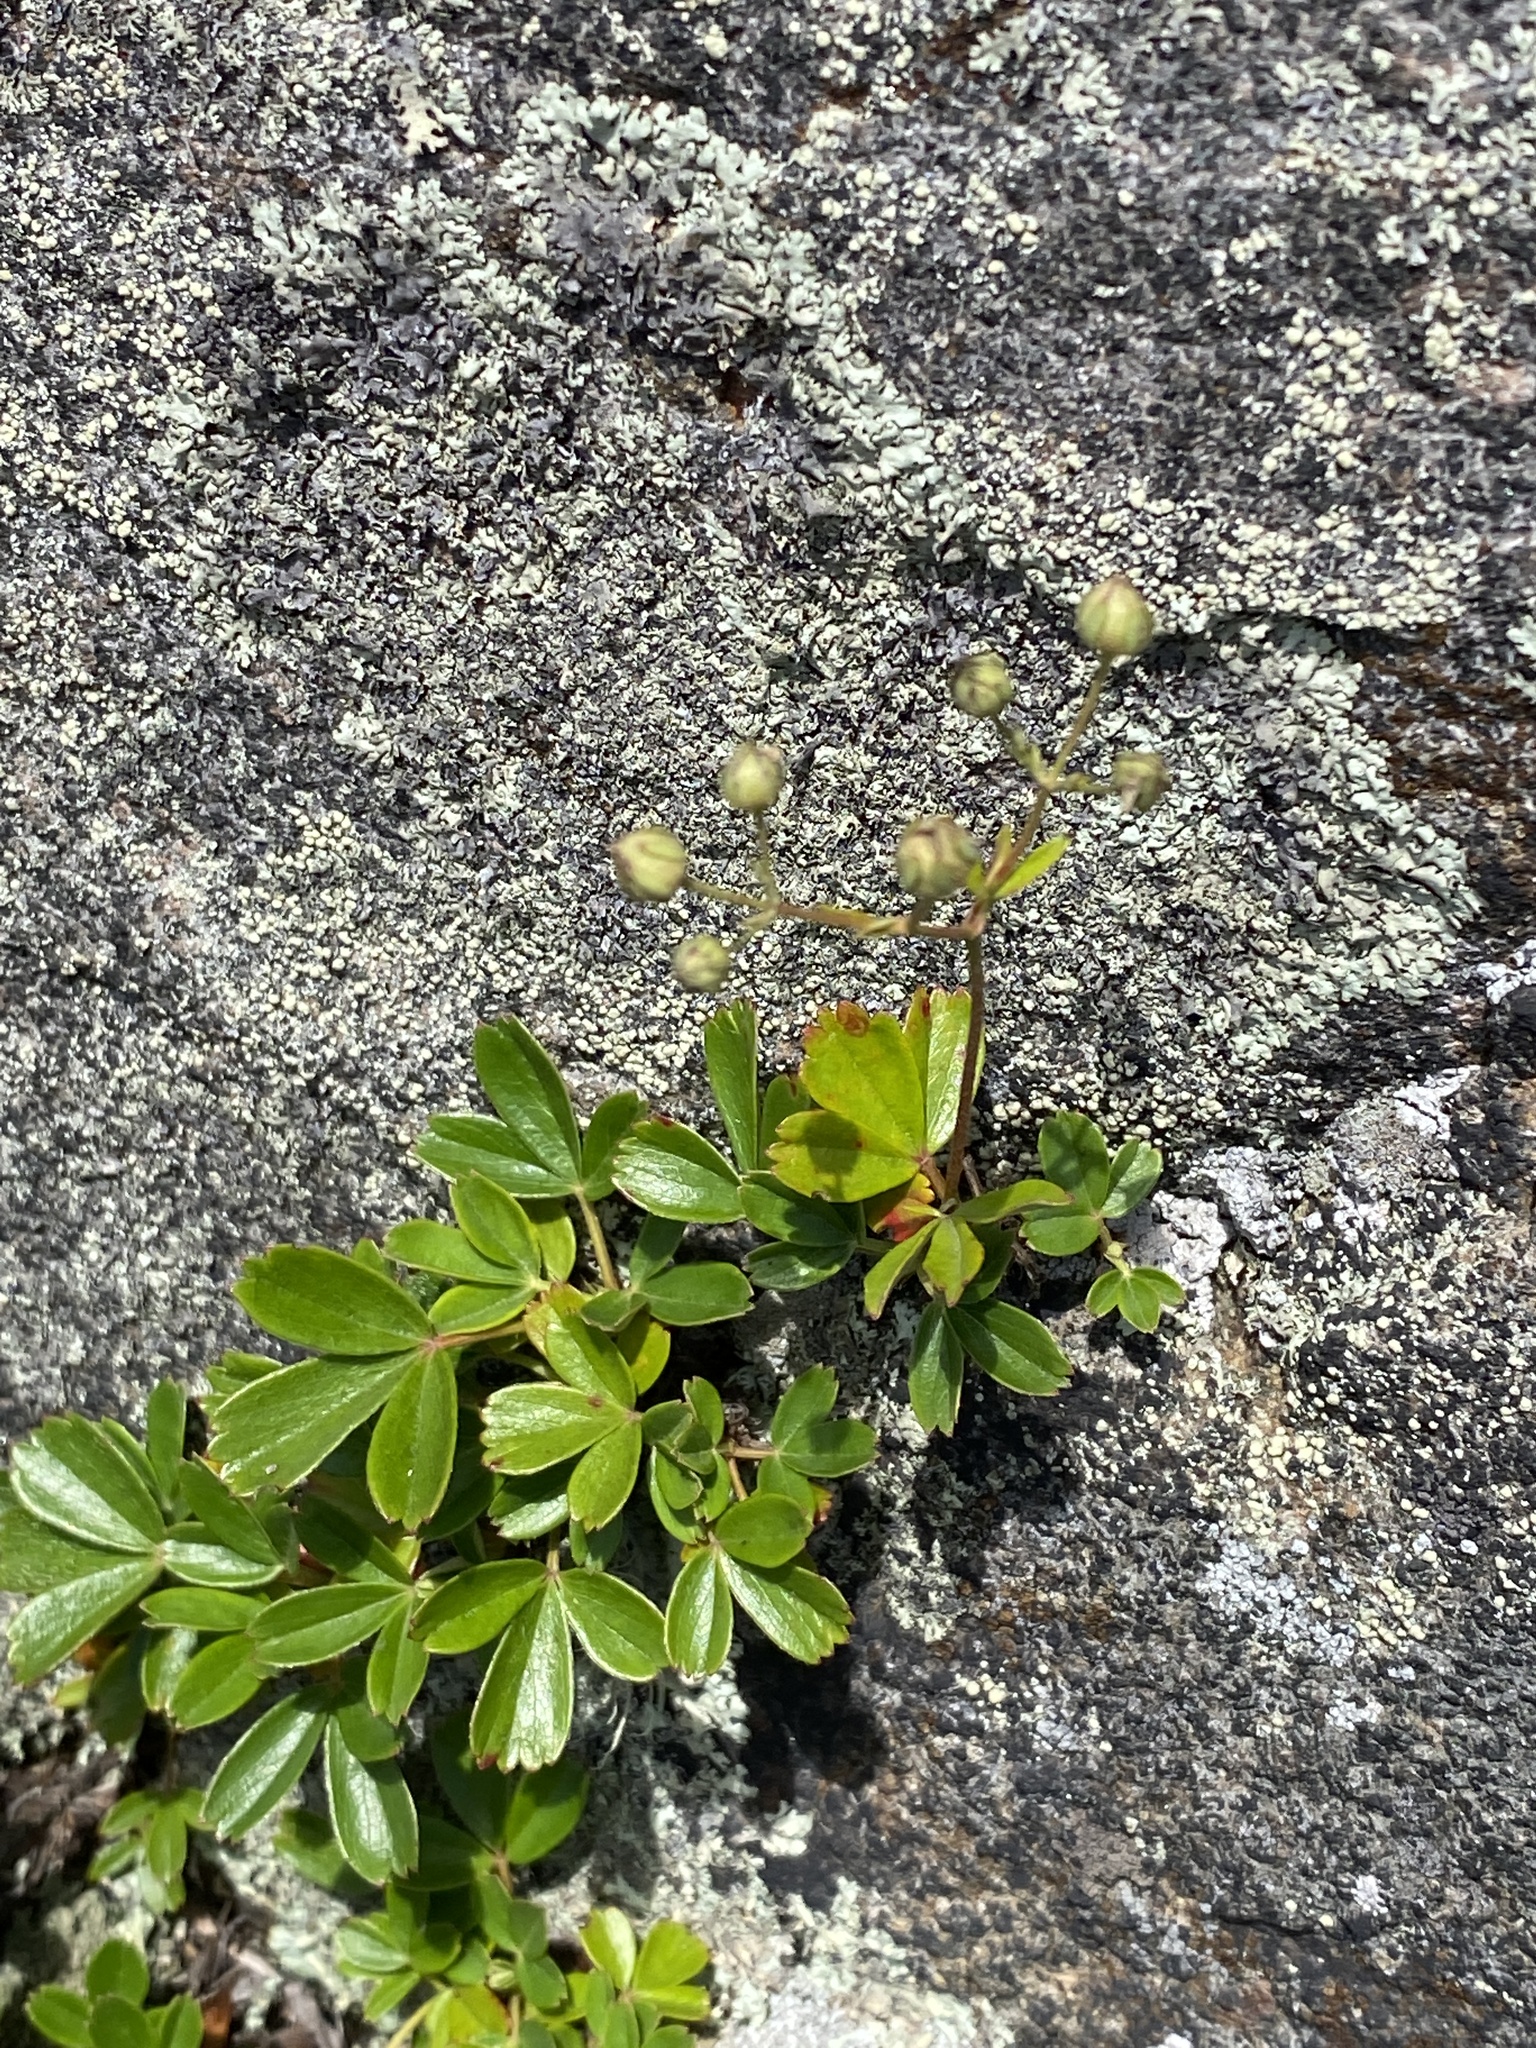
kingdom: Plantae
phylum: Tracheophyta
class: Magnoliopsida
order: Rosales
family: Rosaceae
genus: Sibbaldia
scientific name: Sibbaldia tridentata
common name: Three-toothed cinquefoil
